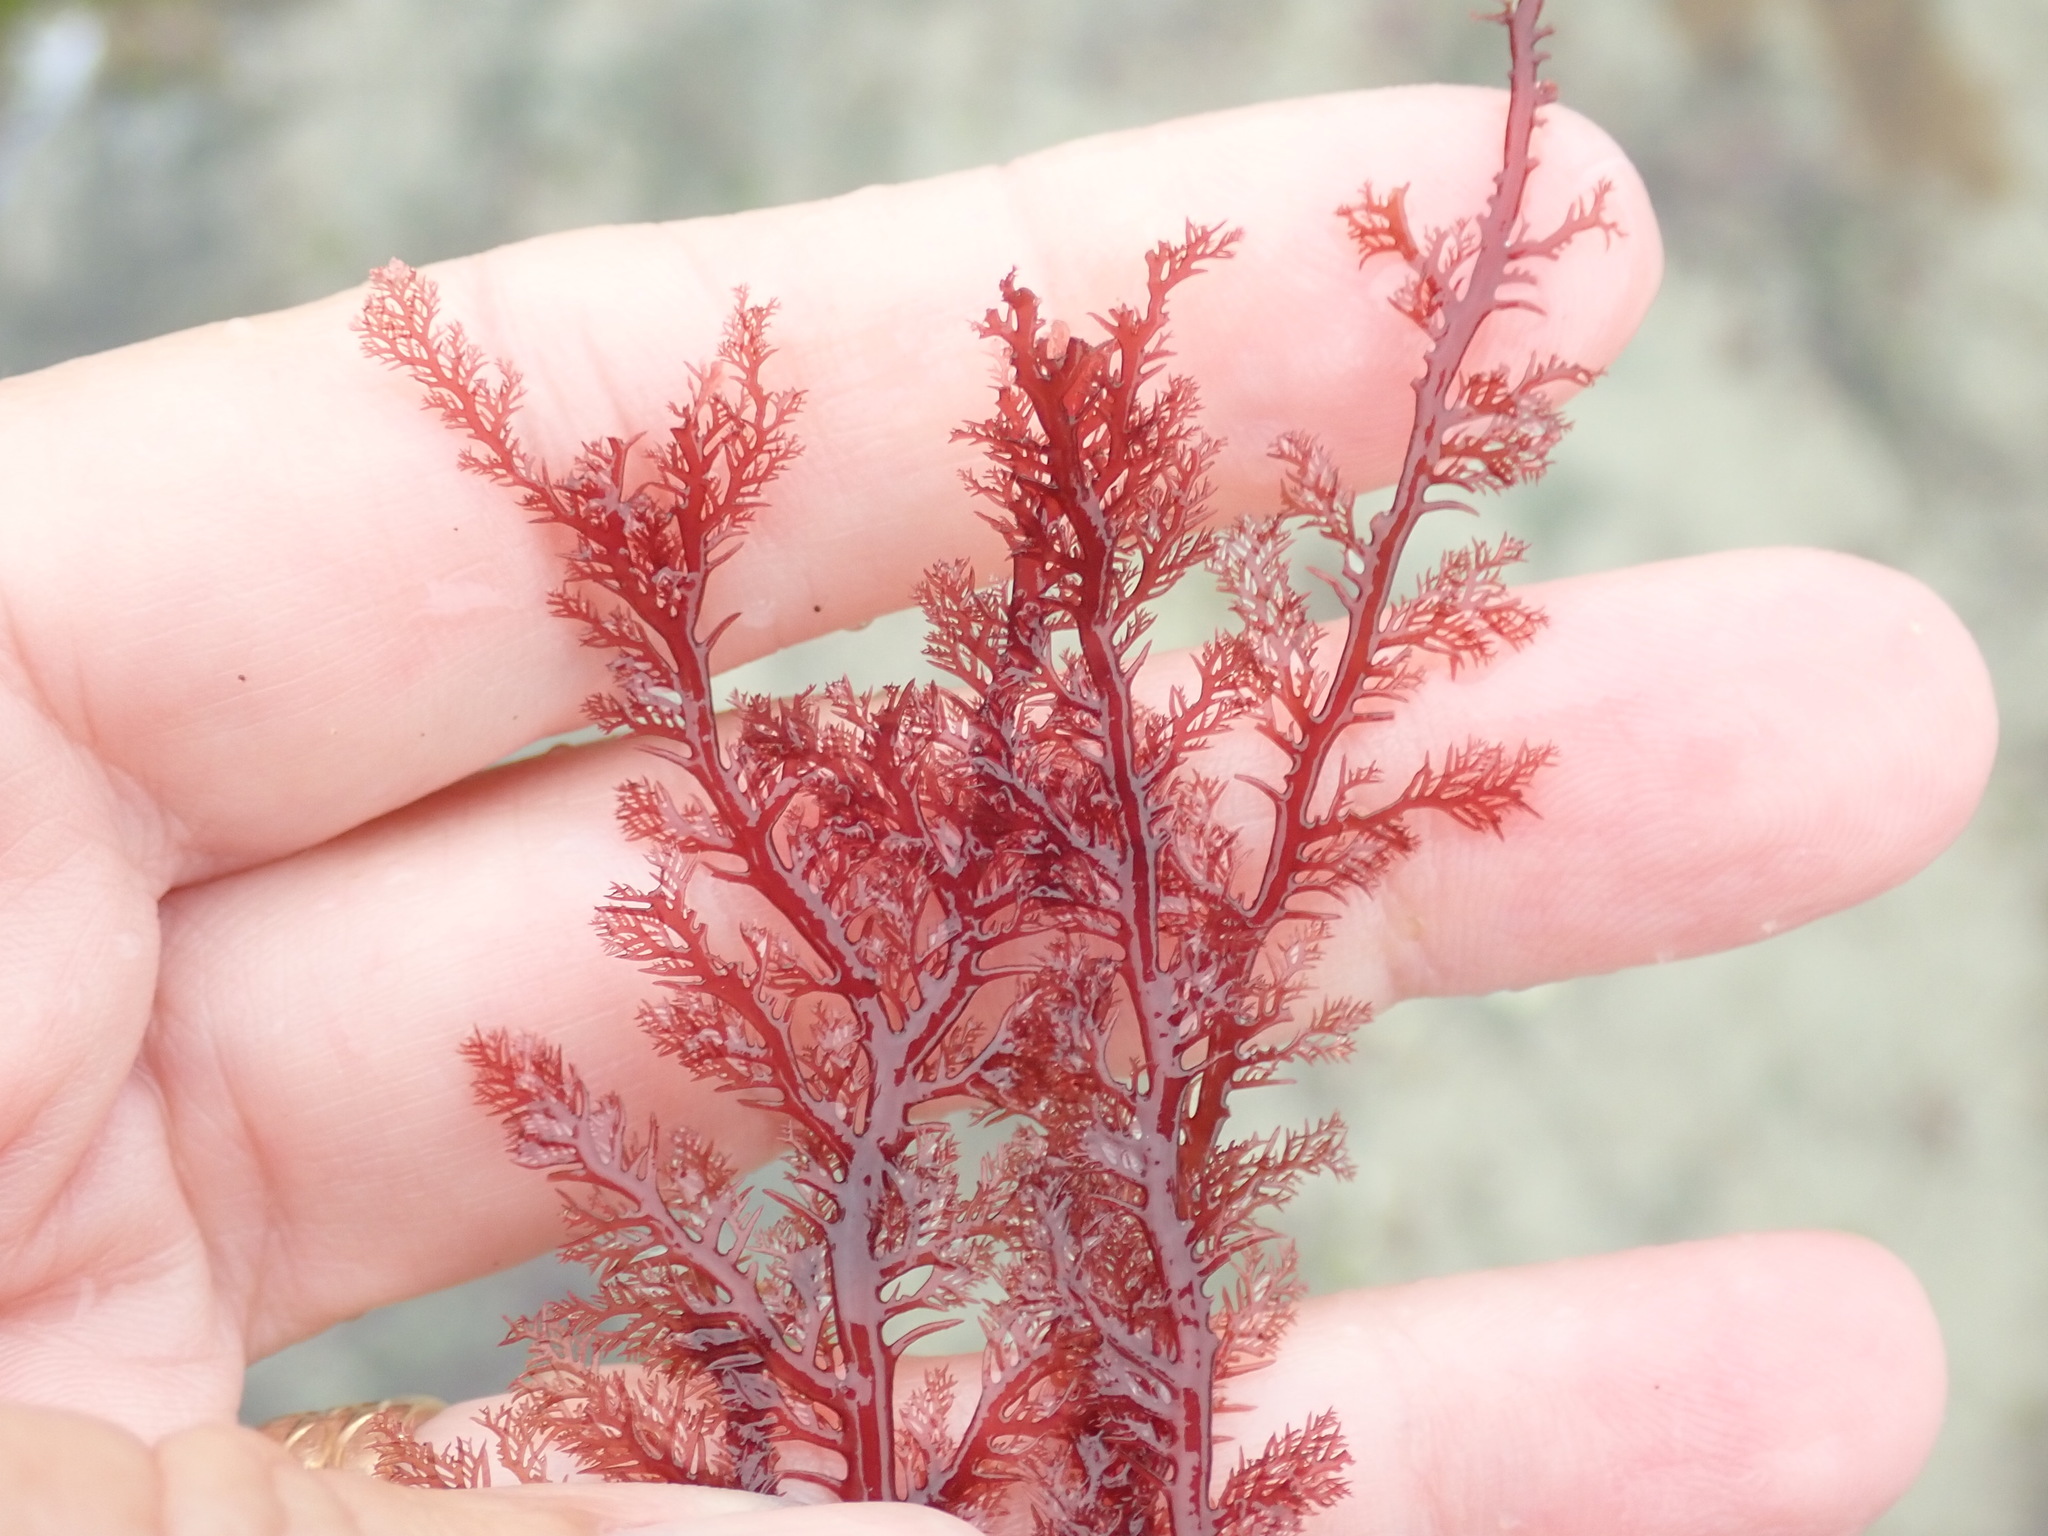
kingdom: Plantae
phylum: Rhodophyta
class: Florideophyceae
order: Plocamiales
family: Plocamiaceae
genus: Plocamium
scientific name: Plocamium cartilagineum
